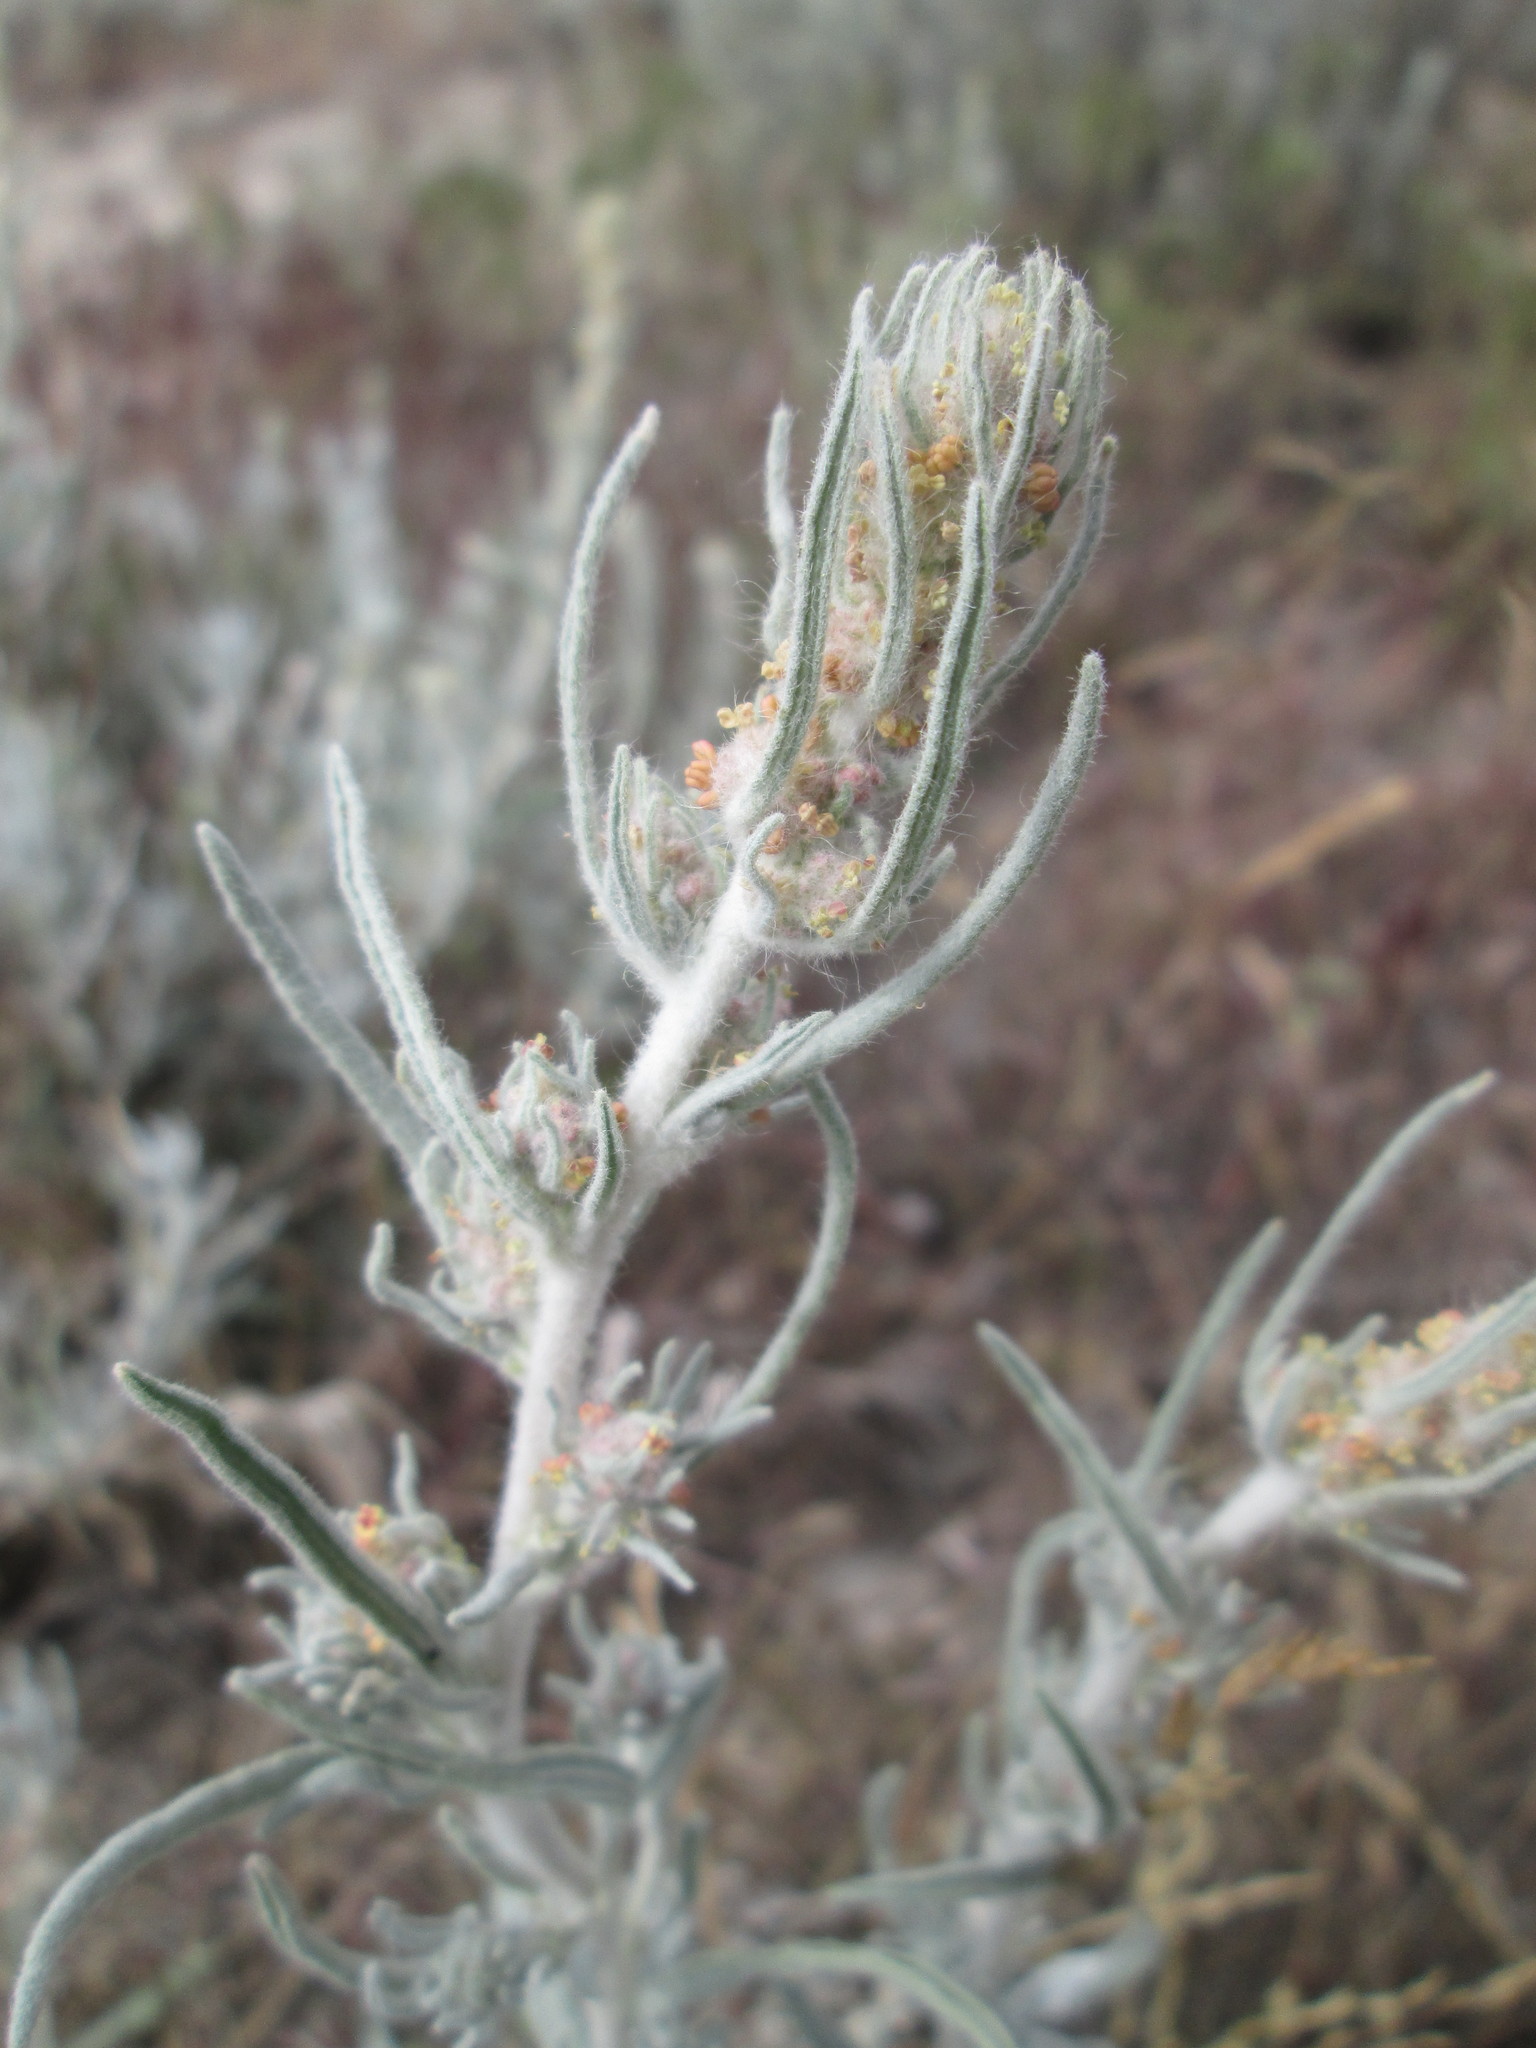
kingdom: Plantae
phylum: Tracheophyta
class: Magnoliopsida
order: Caryophyllales
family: Amaranthaceae
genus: Krascheninnikovia
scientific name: Krascheninnikovia lanata
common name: Winterfat
